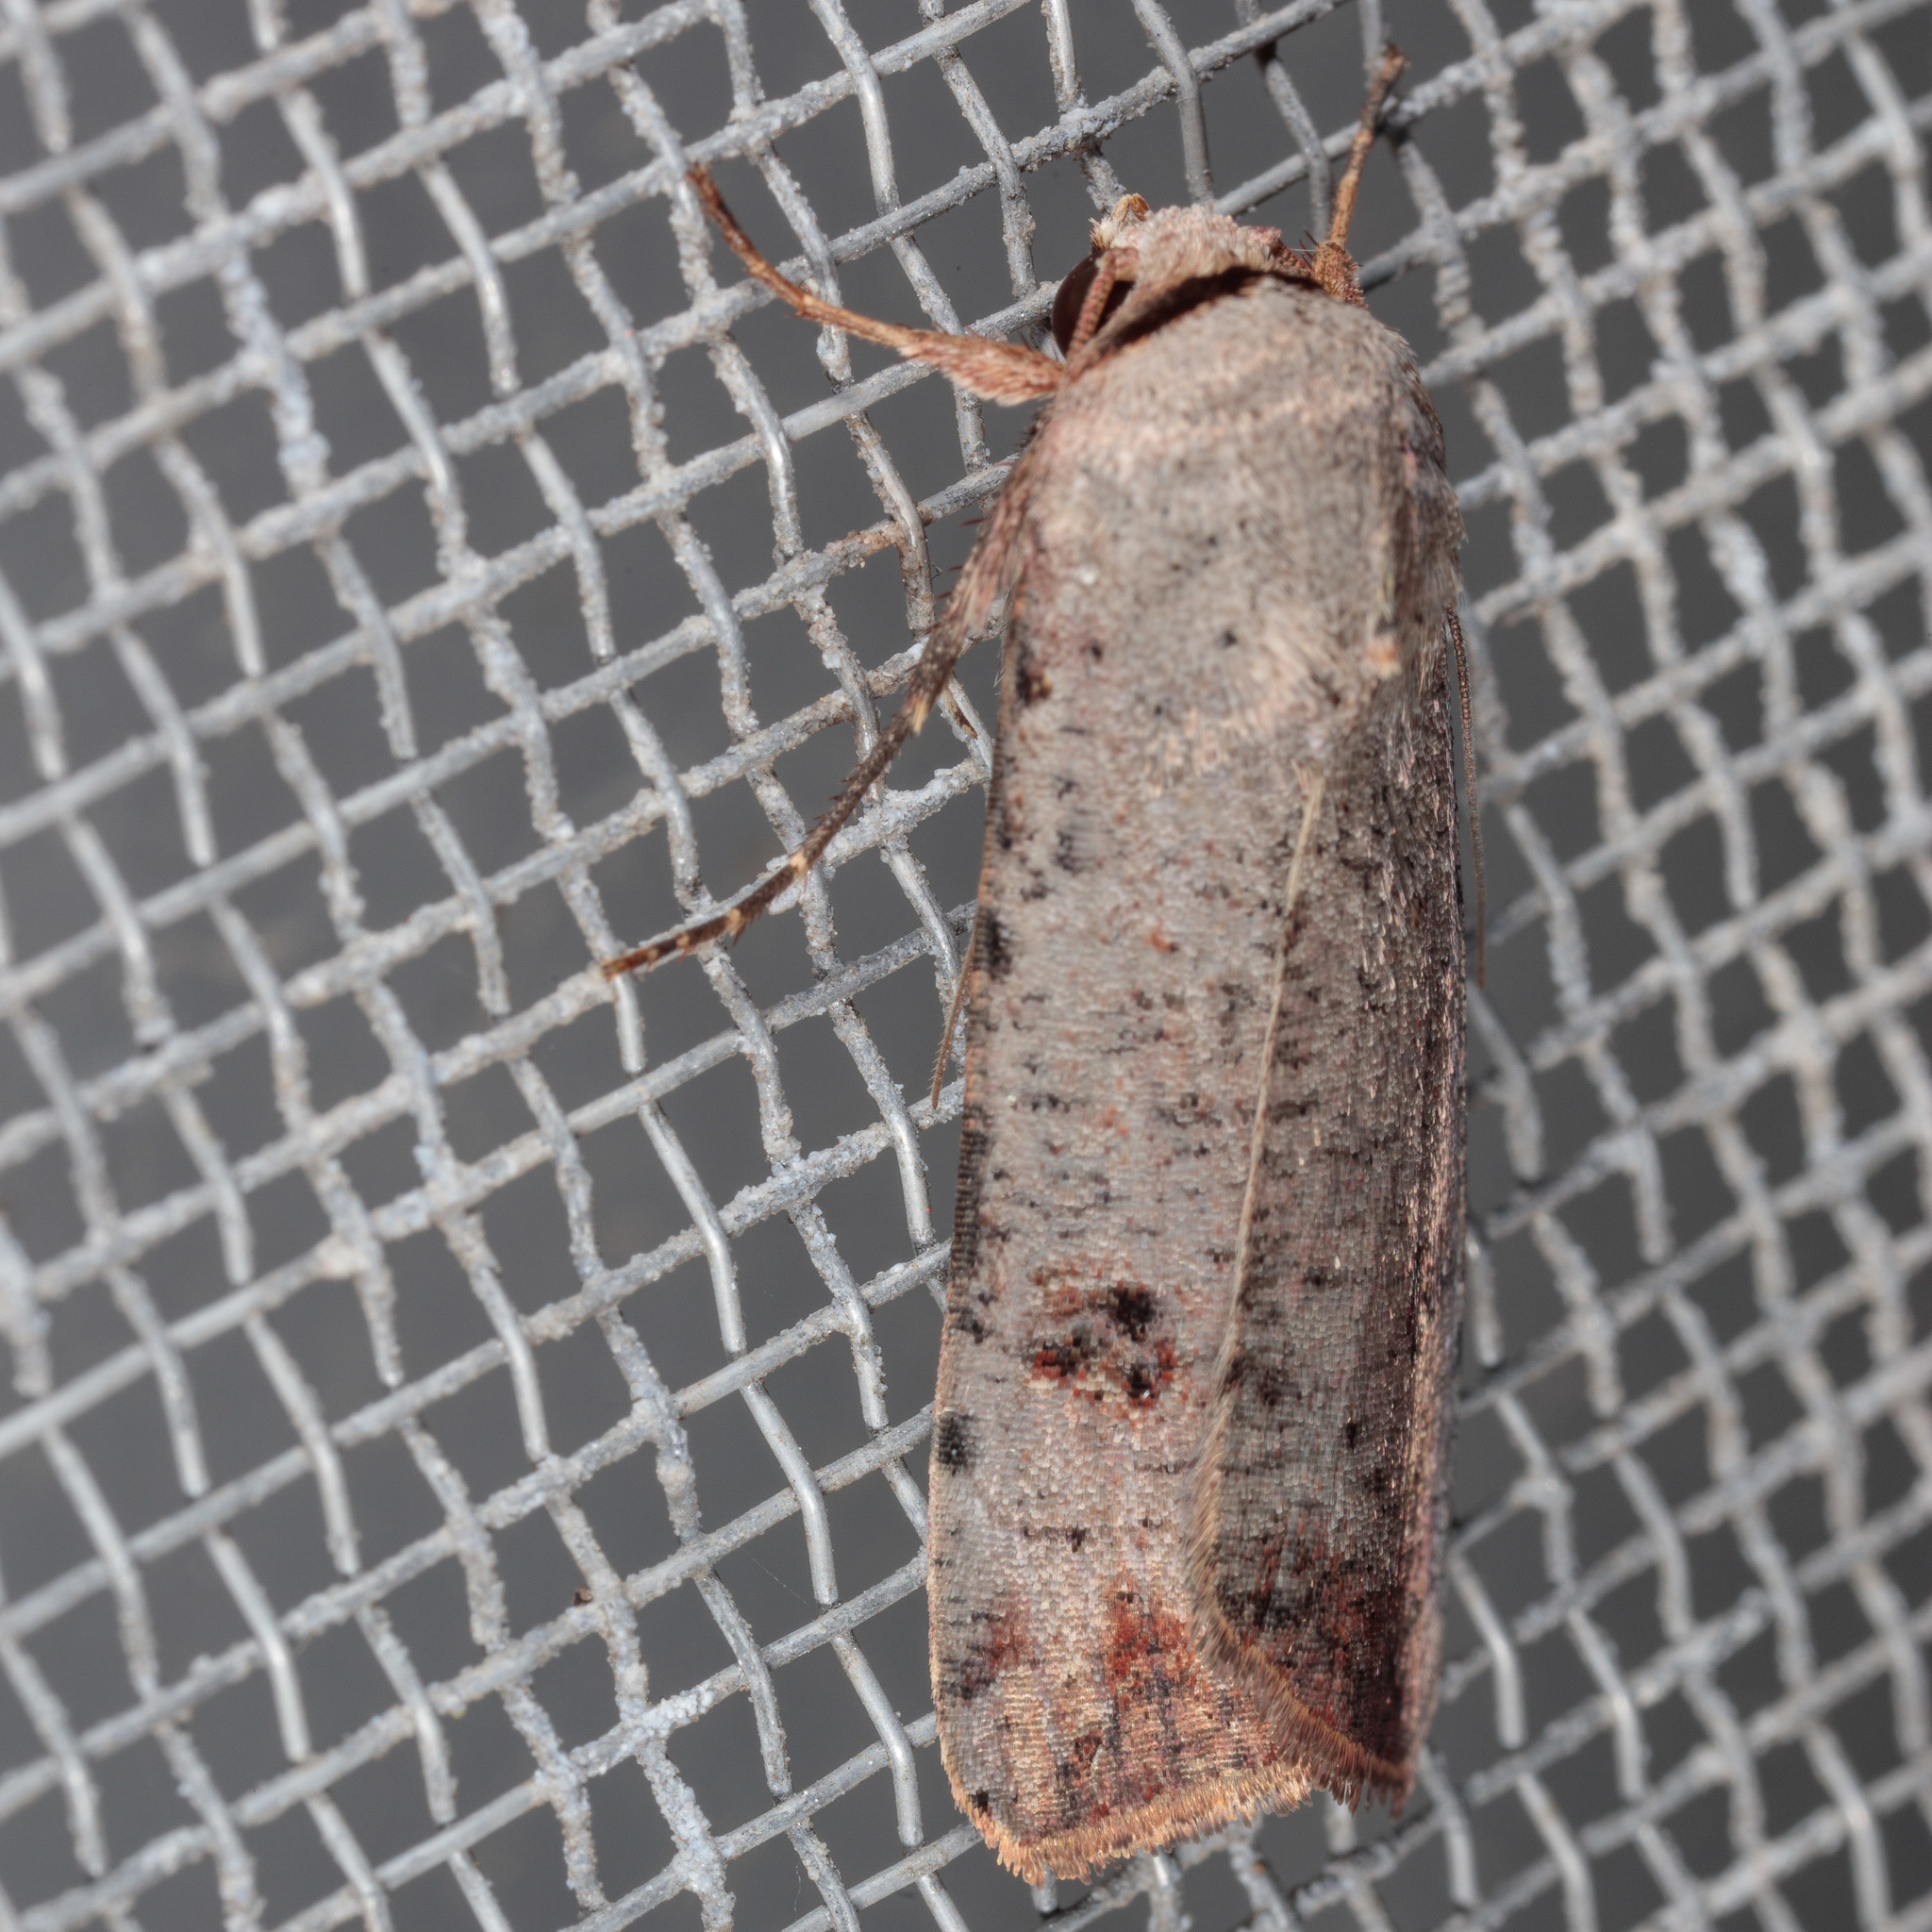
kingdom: Animalia
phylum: Arthropoda
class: Insecta
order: Lepidoptera
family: Noctuidae
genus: Anicla
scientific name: Anicla infecta
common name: Green cutworm
